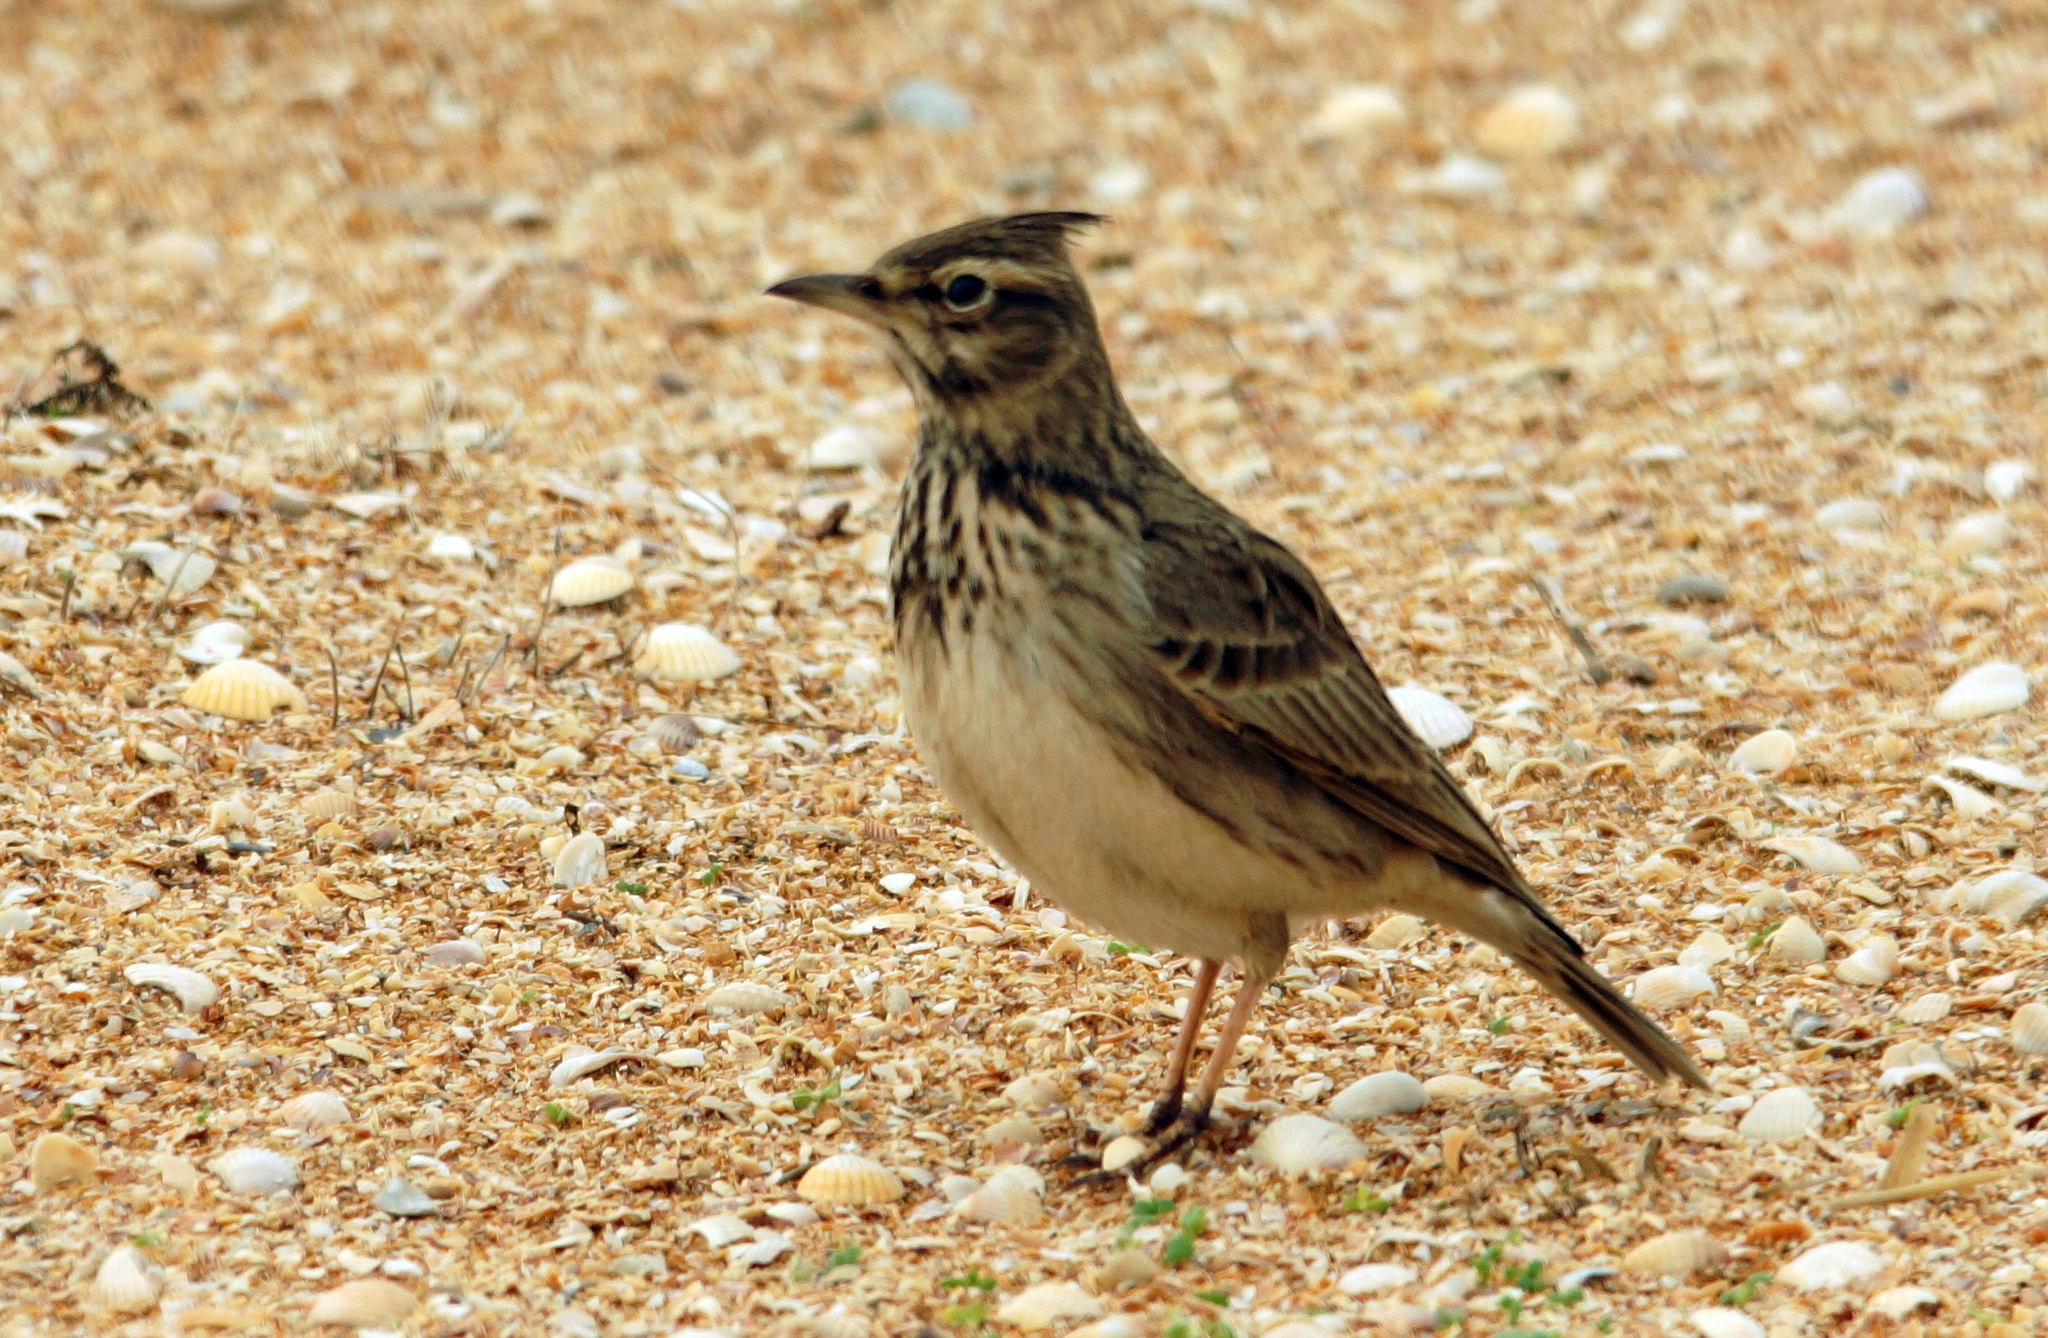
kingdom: Animalia
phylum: Chordata
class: Aves
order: Passeriformes
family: Alaudidae
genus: Galerida
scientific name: Galerida cristata
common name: Crested lark
